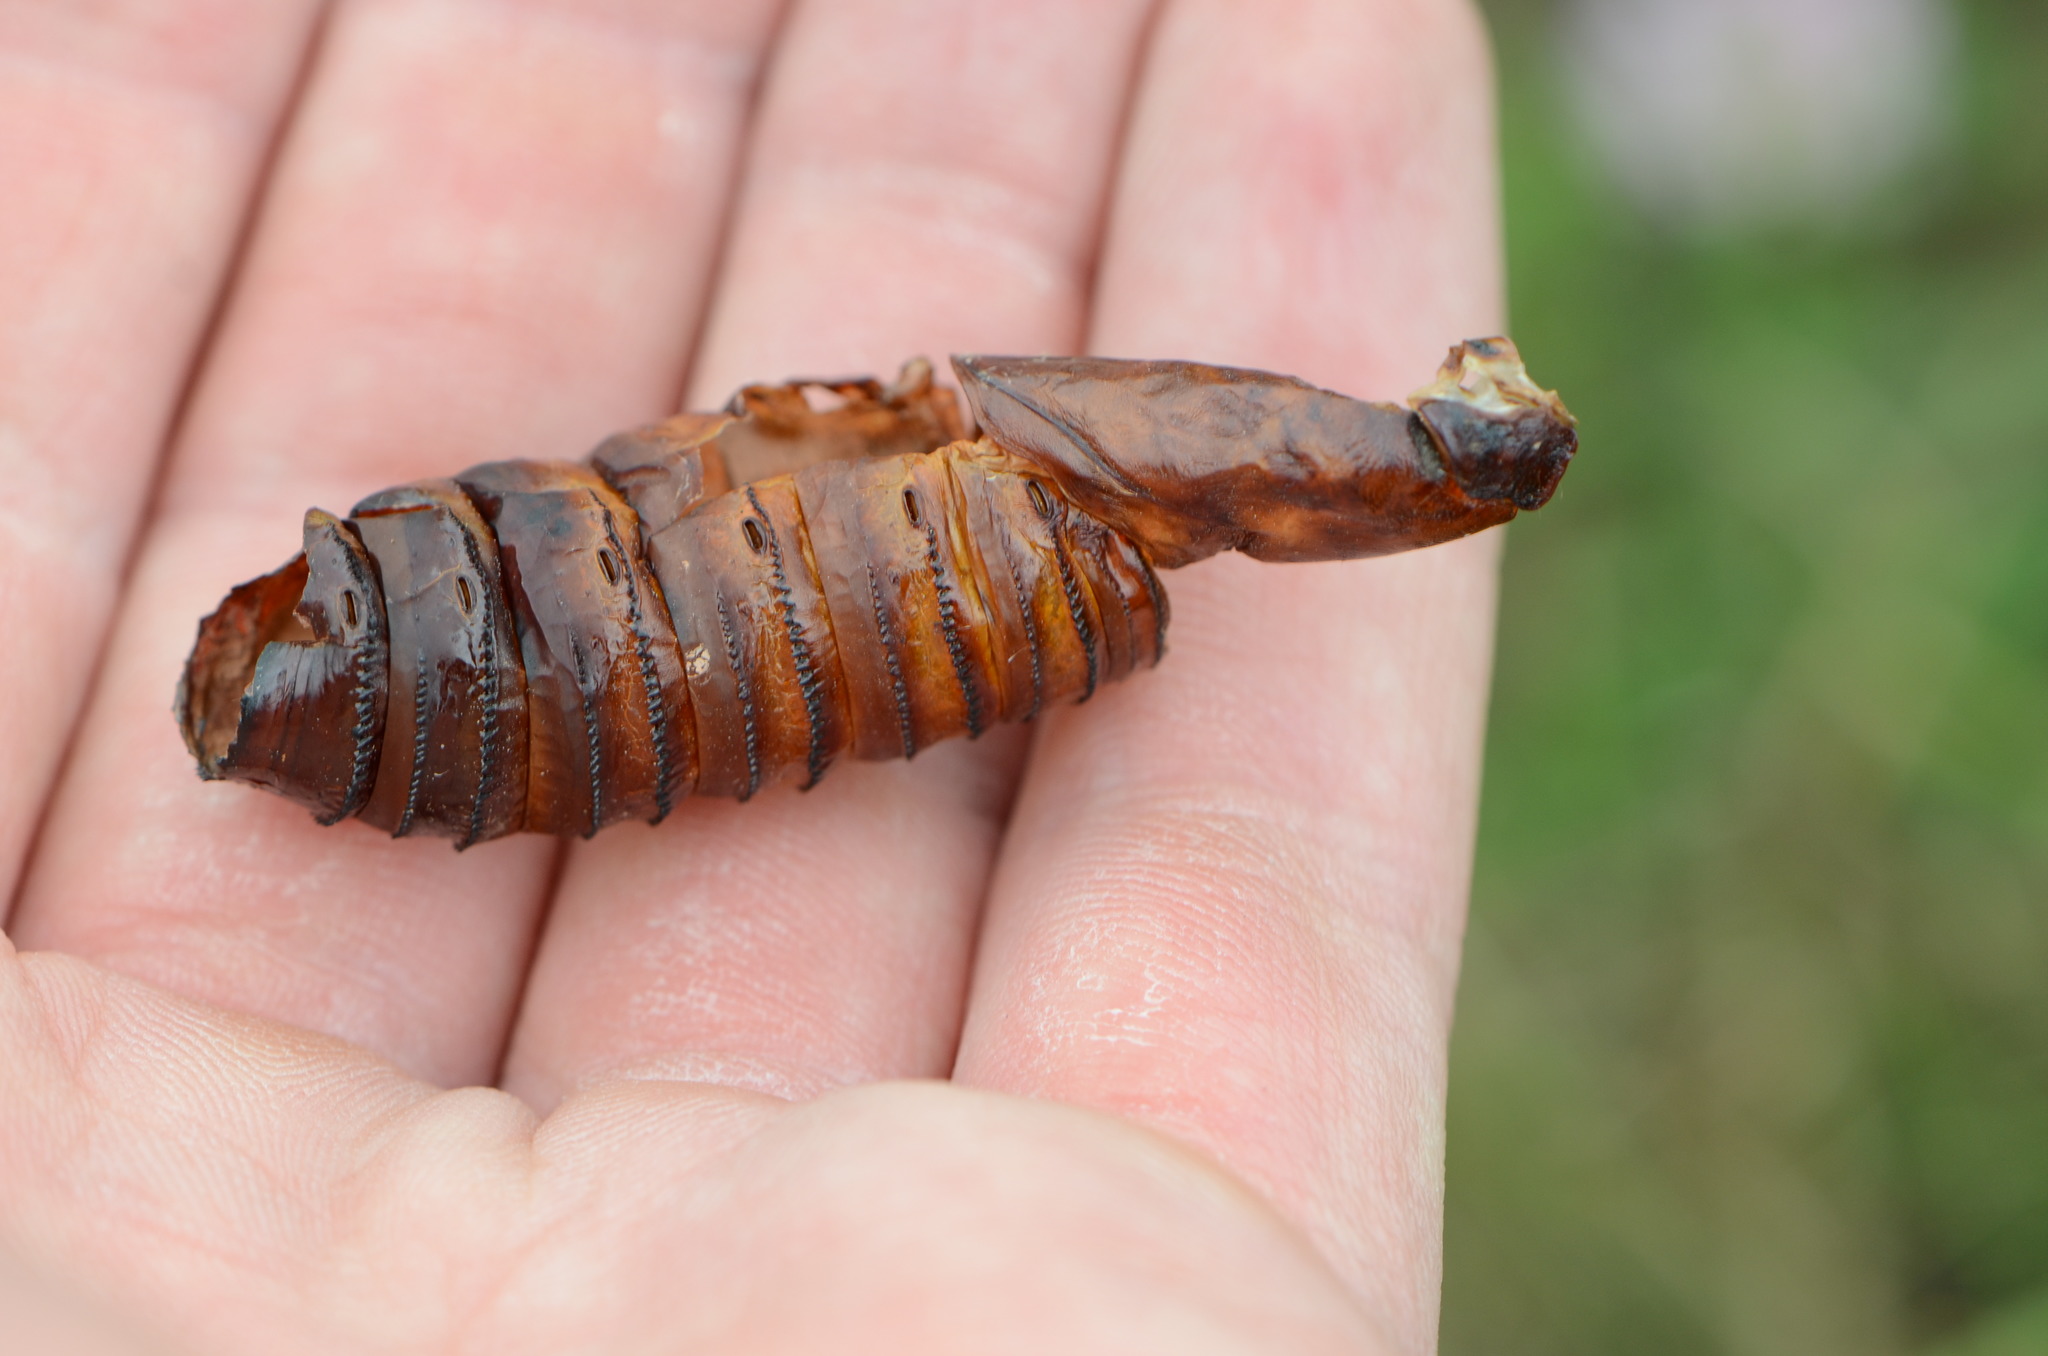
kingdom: Animalia
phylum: Arthropoda
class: Insecta
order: Lepidoptera
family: Cossidae
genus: Cossus
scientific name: Cossus cossus
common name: Goat moth
